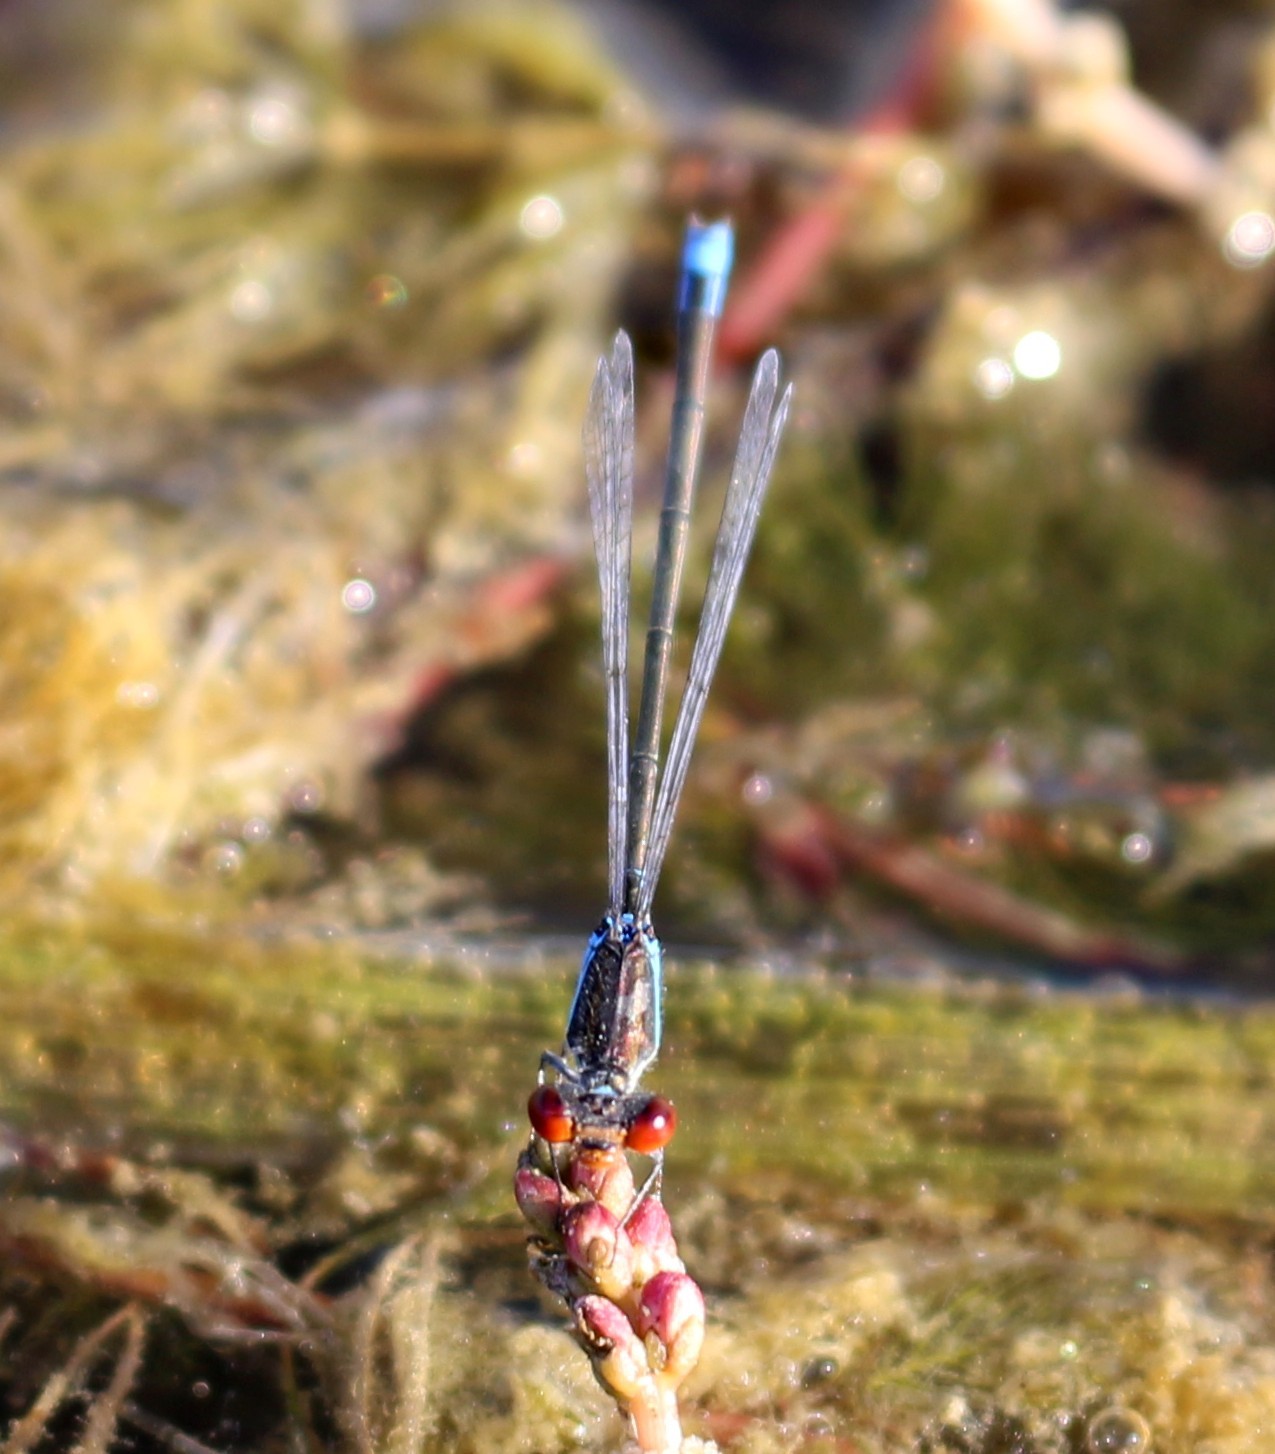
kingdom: Animalia
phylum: Arthropoda
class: Insecta
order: Odonata
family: Coenagrionidae
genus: Erythromma
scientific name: Erythromma viridulum
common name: Small red-eyed damselfly
